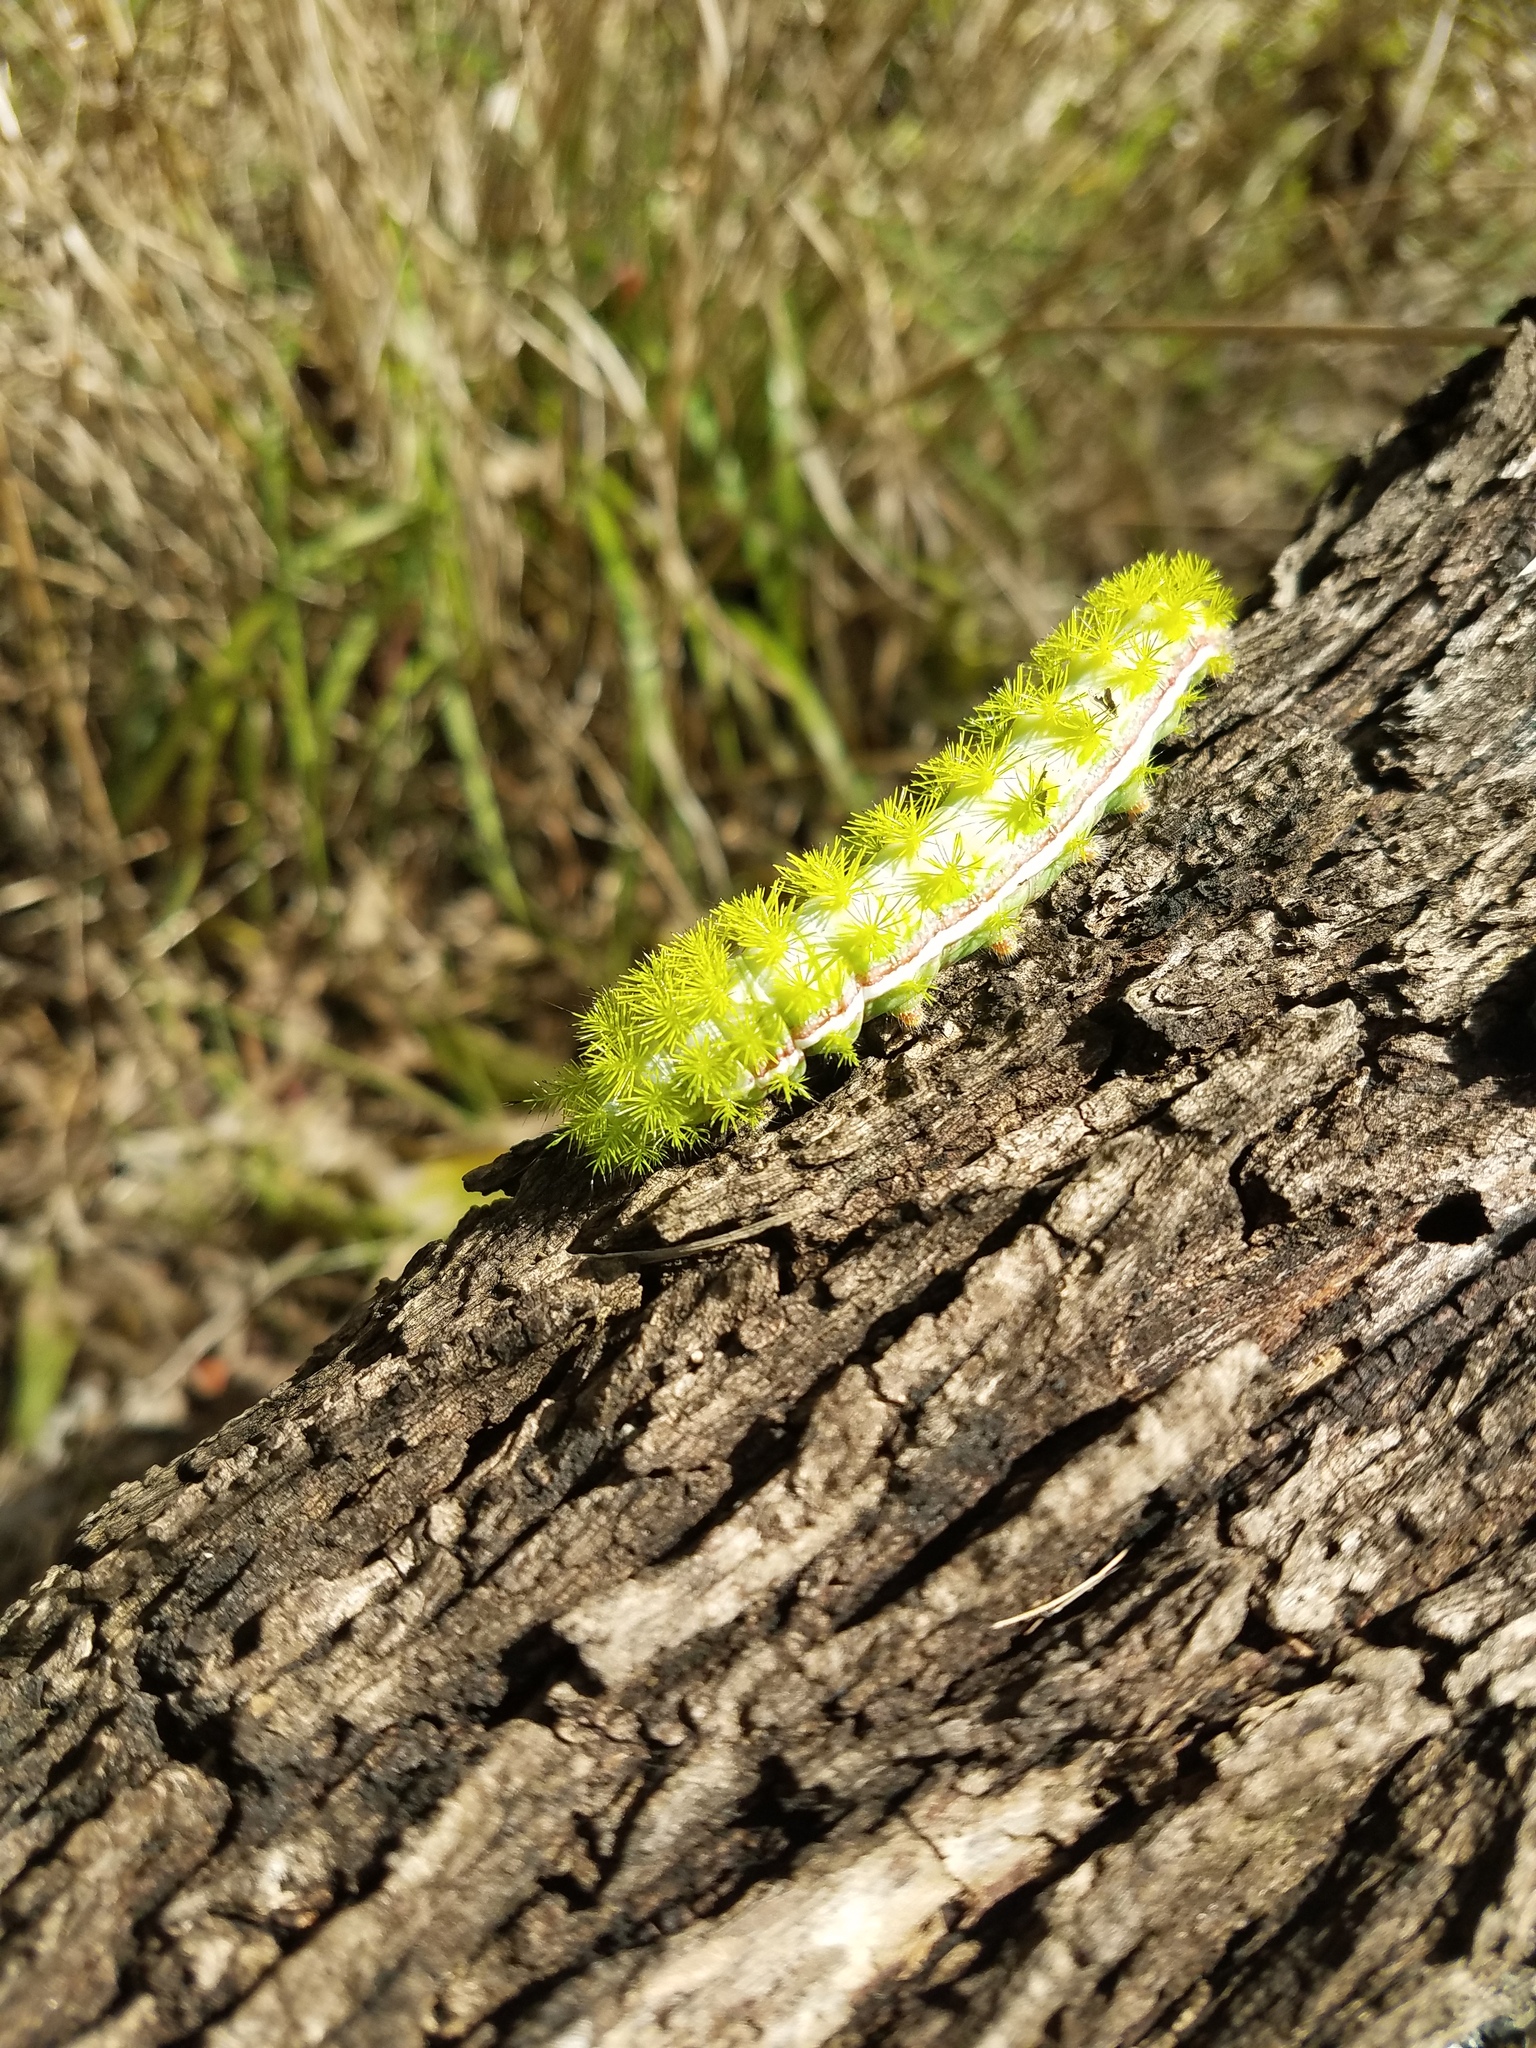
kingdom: Animalia
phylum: Arthropoda
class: Insecta
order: Lepidoptera
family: Saturniidae
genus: Automeris
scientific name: Automeris io
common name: Io moth
